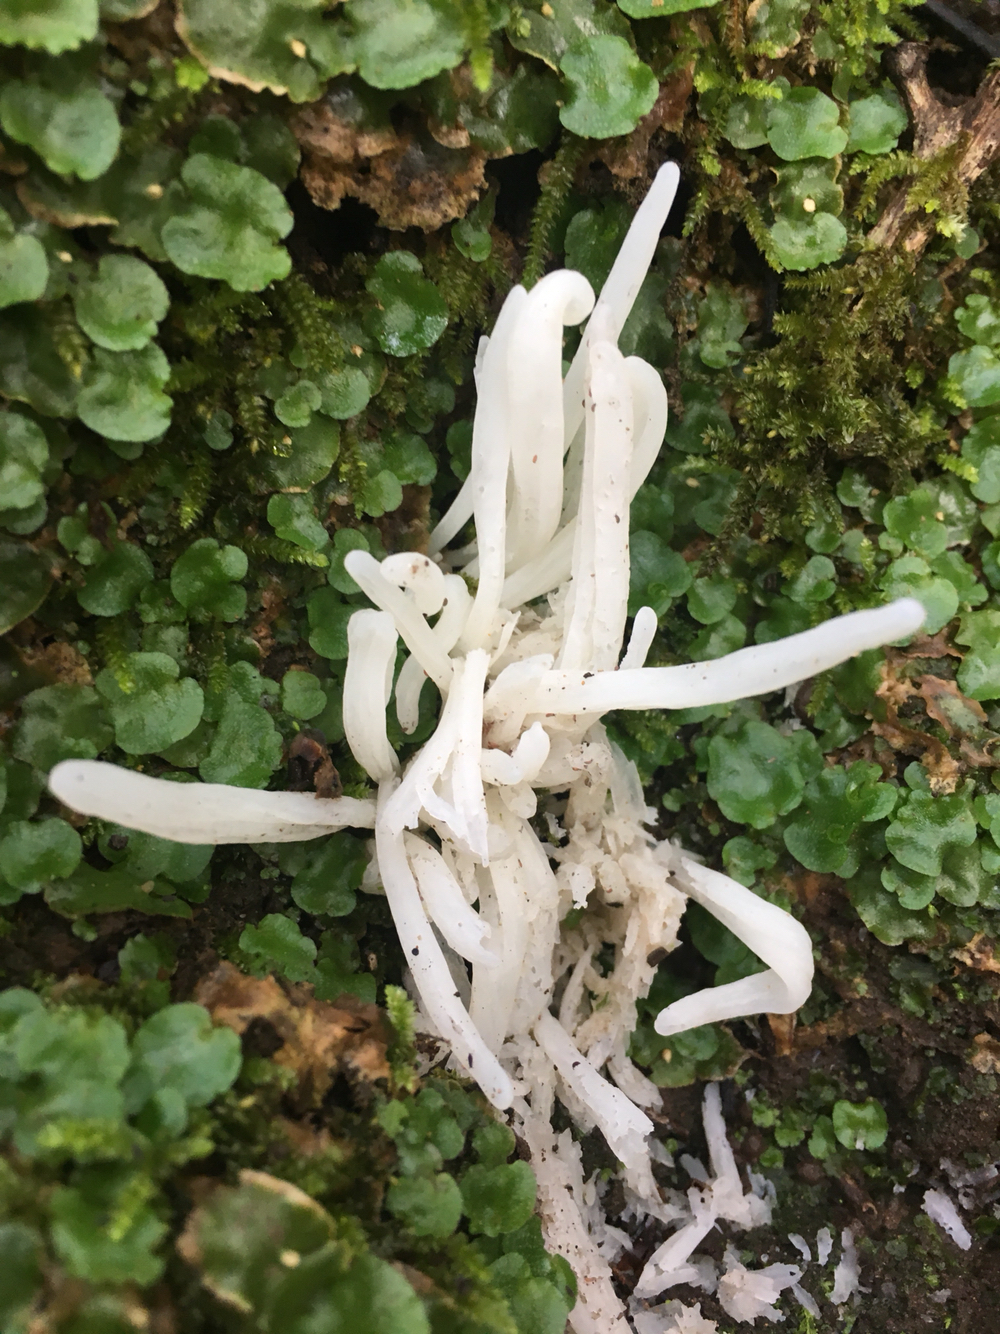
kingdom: Fungi
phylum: Basidiomycota
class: Agaricomycetes
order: Agaricales
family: Clavariaceae
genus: Clavaria
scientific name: Clavaria fragilis
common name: White spindles
